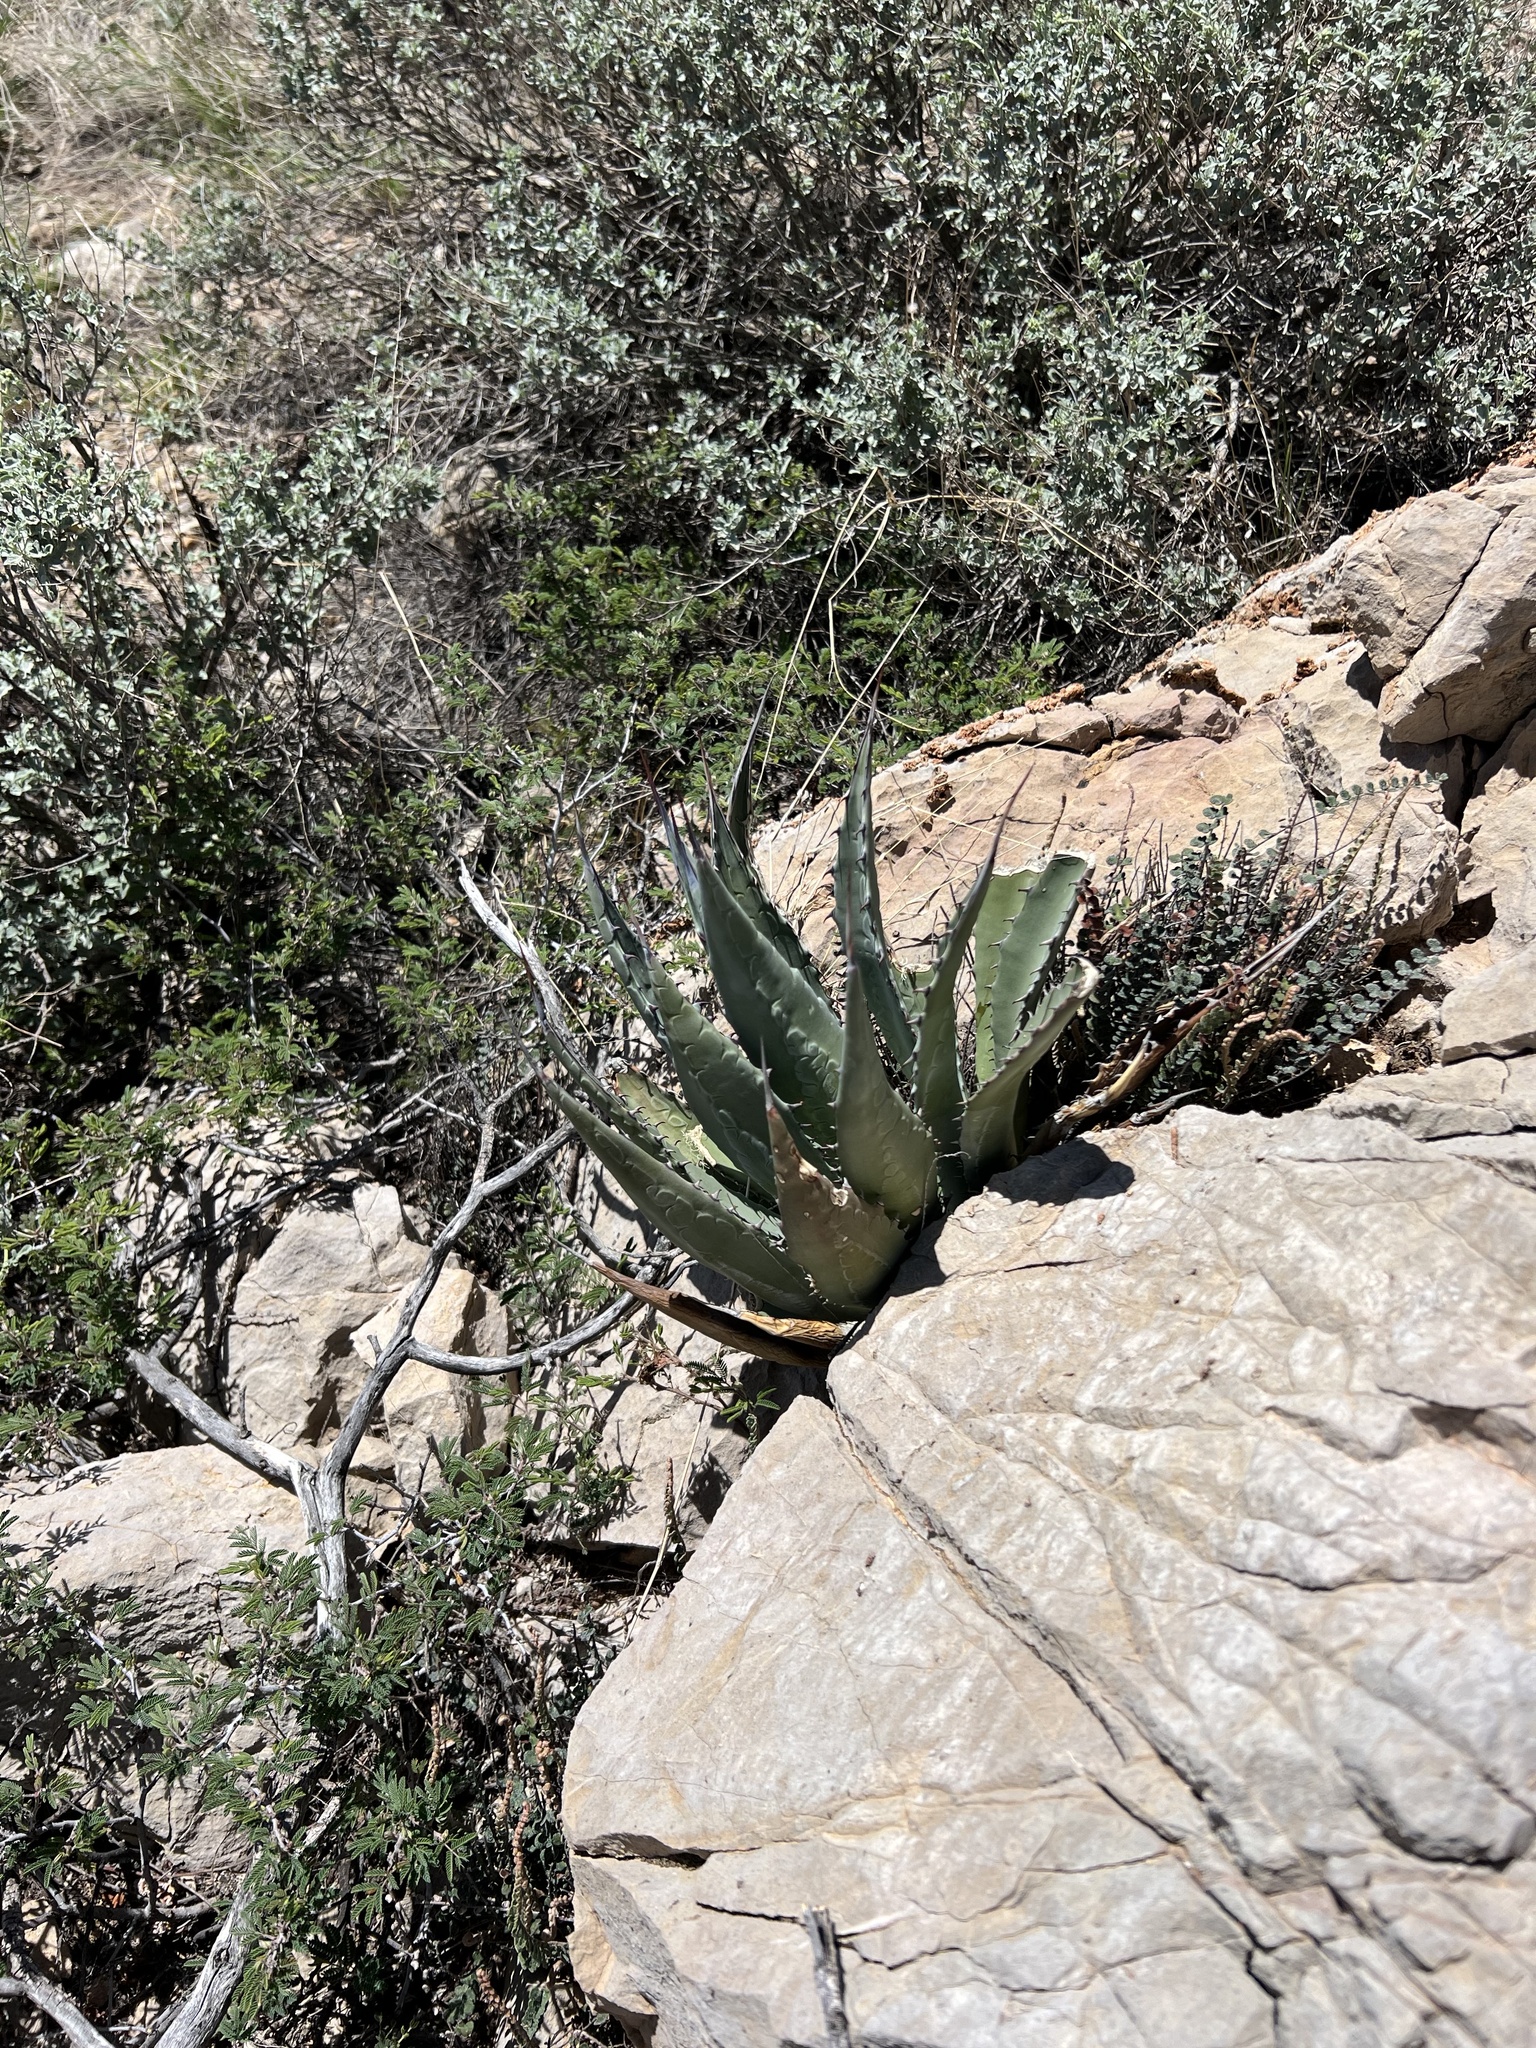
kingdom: Plantae
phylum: Tracheophyta
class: Liliopsida
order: Asparagales
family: Asparagaceae
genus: Agave
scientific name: Agave palmeri
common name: Palmer agave
